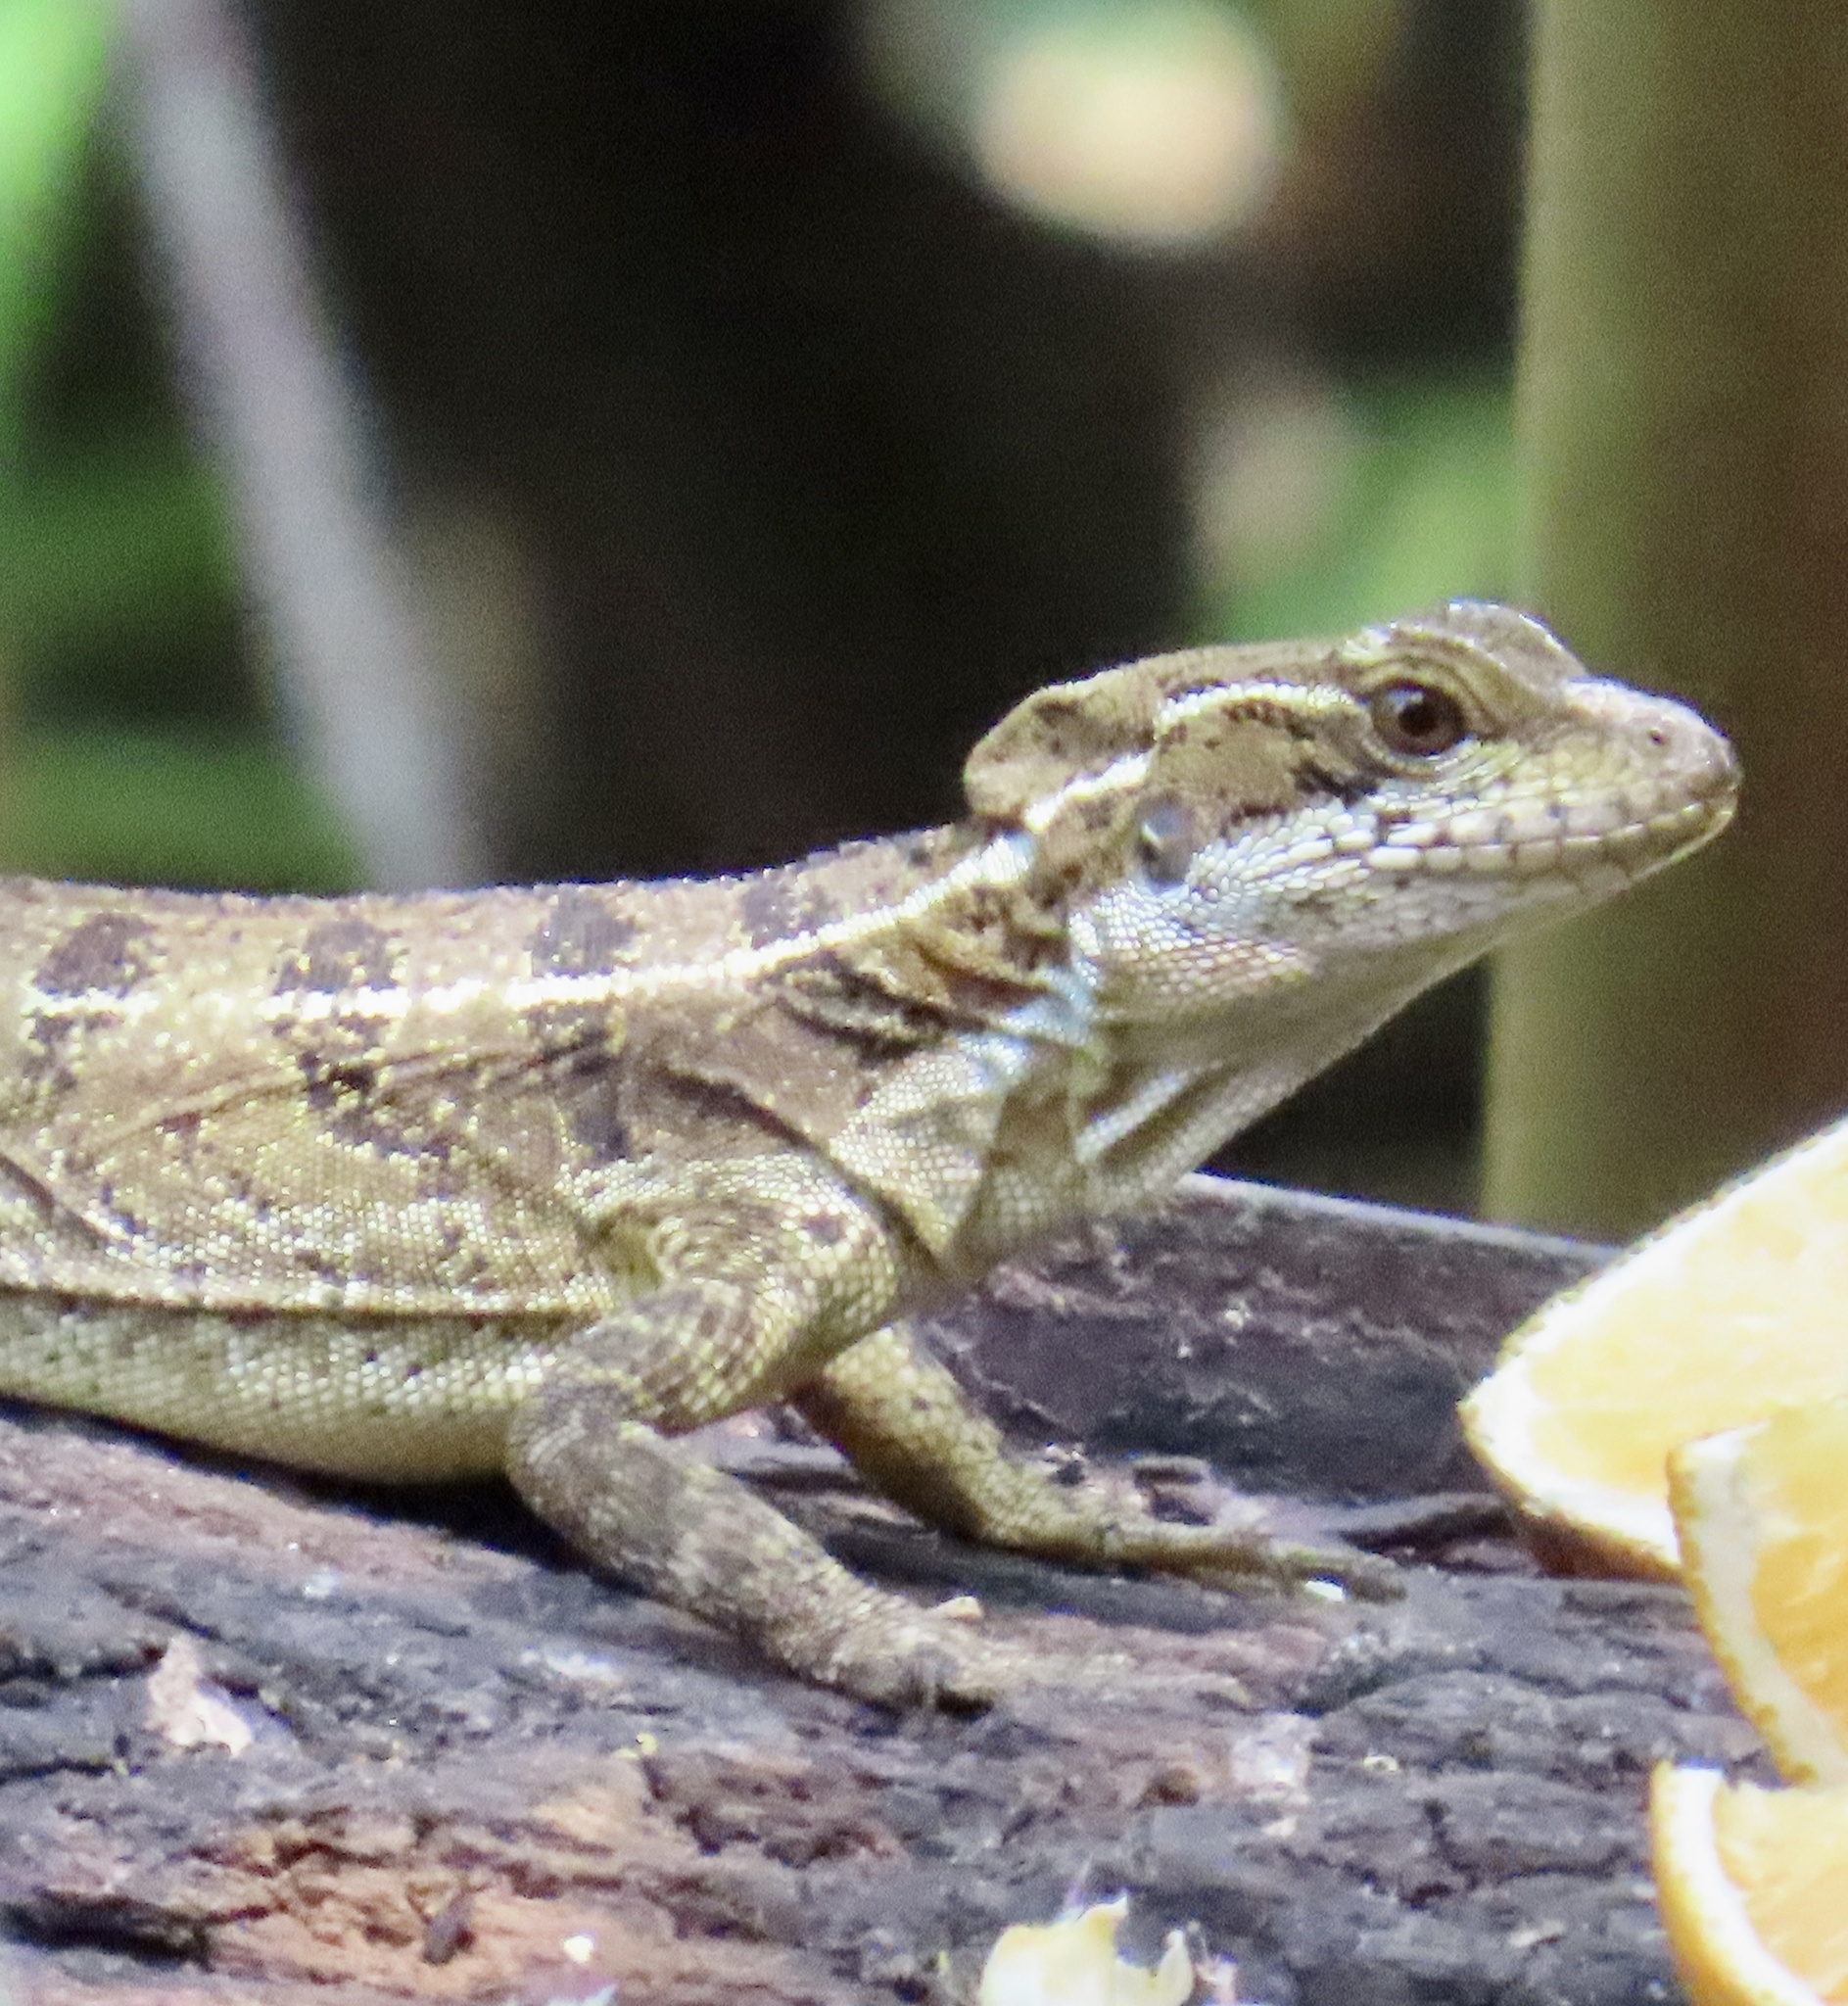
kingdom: Animalia
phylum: Chordata
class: Squamata
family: Corytophanidae
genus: Basiliscus
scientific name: Basiliscus basiliscus
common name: Common basilisk
